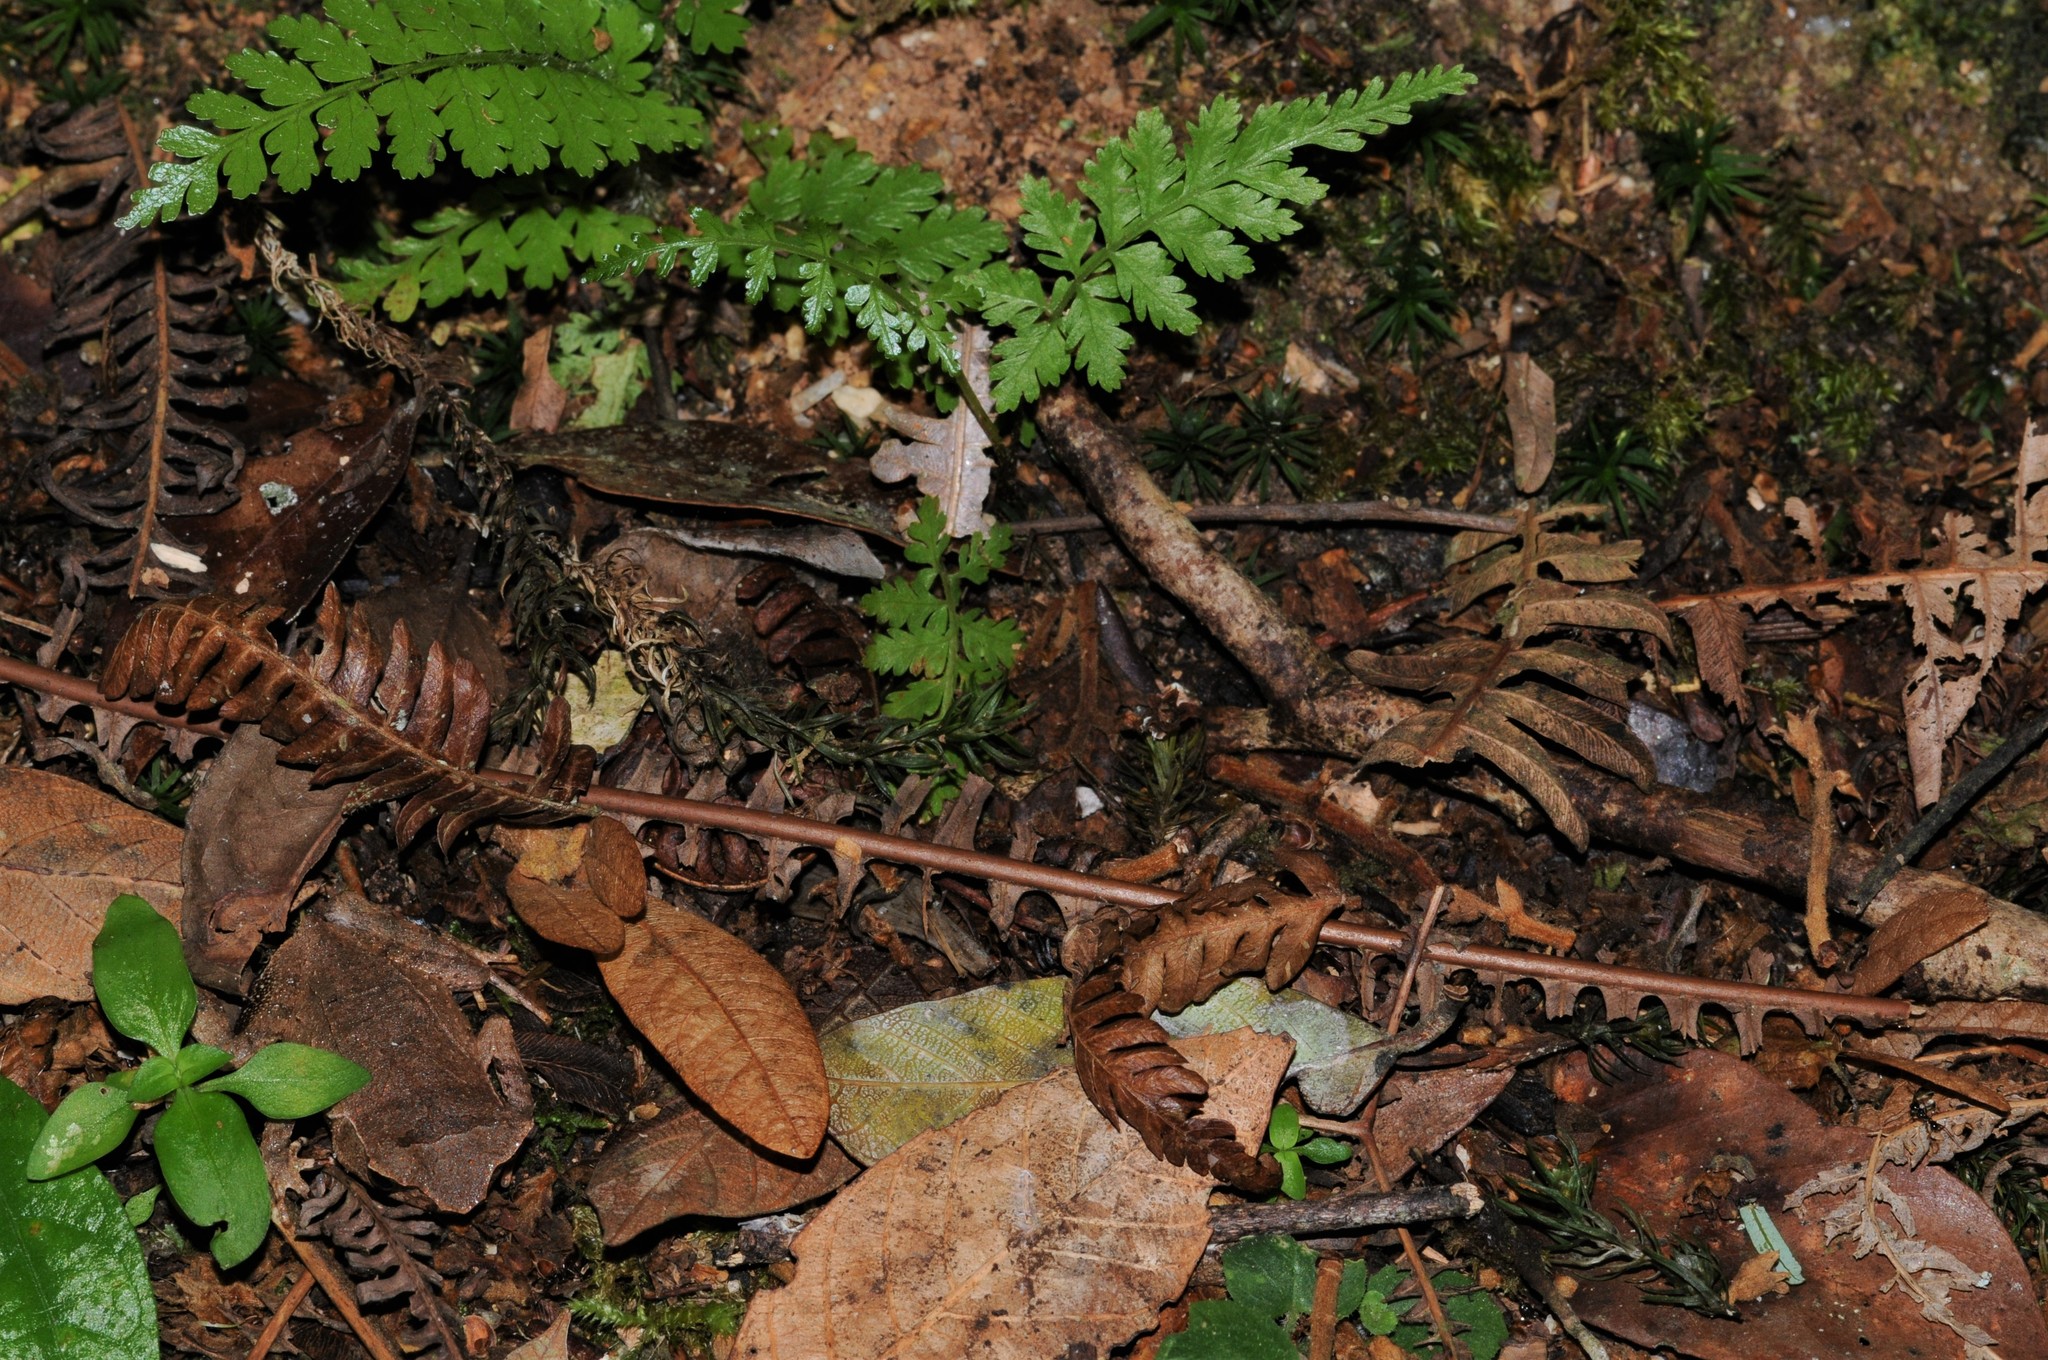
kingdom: Animalia
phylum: Chordata
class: Amphibia
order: Anura
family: Megophryidae
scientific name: Megophryidae
